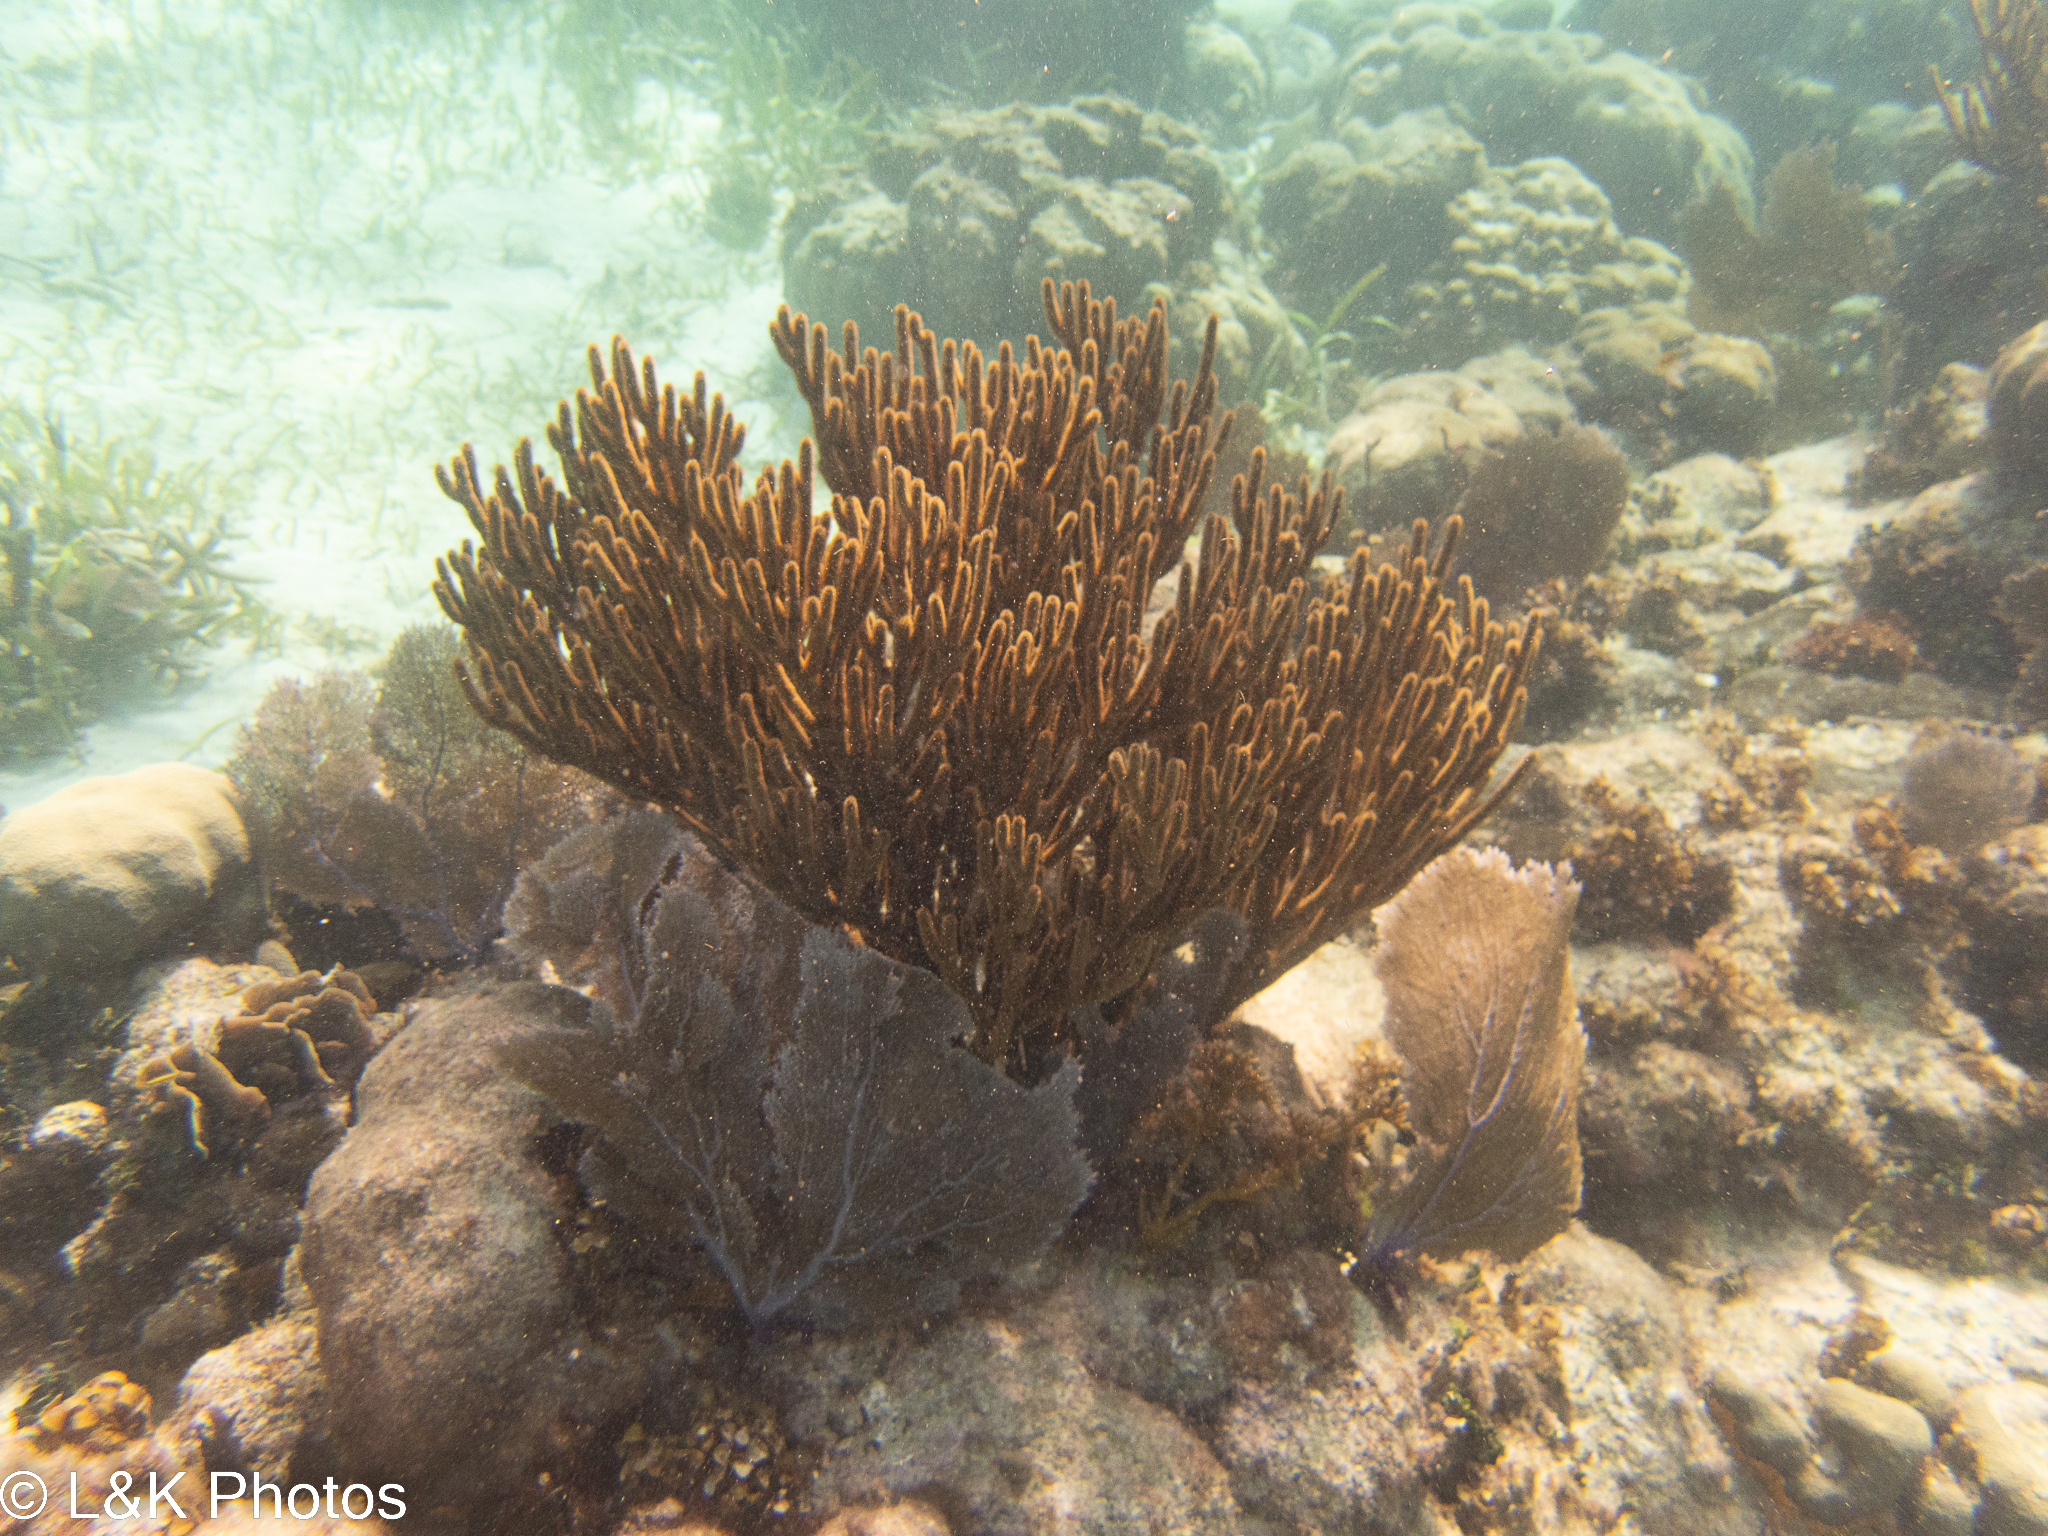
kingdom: Animalia
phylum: Cnidaria
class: Anthozoa
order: Malacalcyonacea
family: Gorgoniidae
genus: Gorgonia
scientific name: Gorgonia ventalina
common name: Common sea fan
